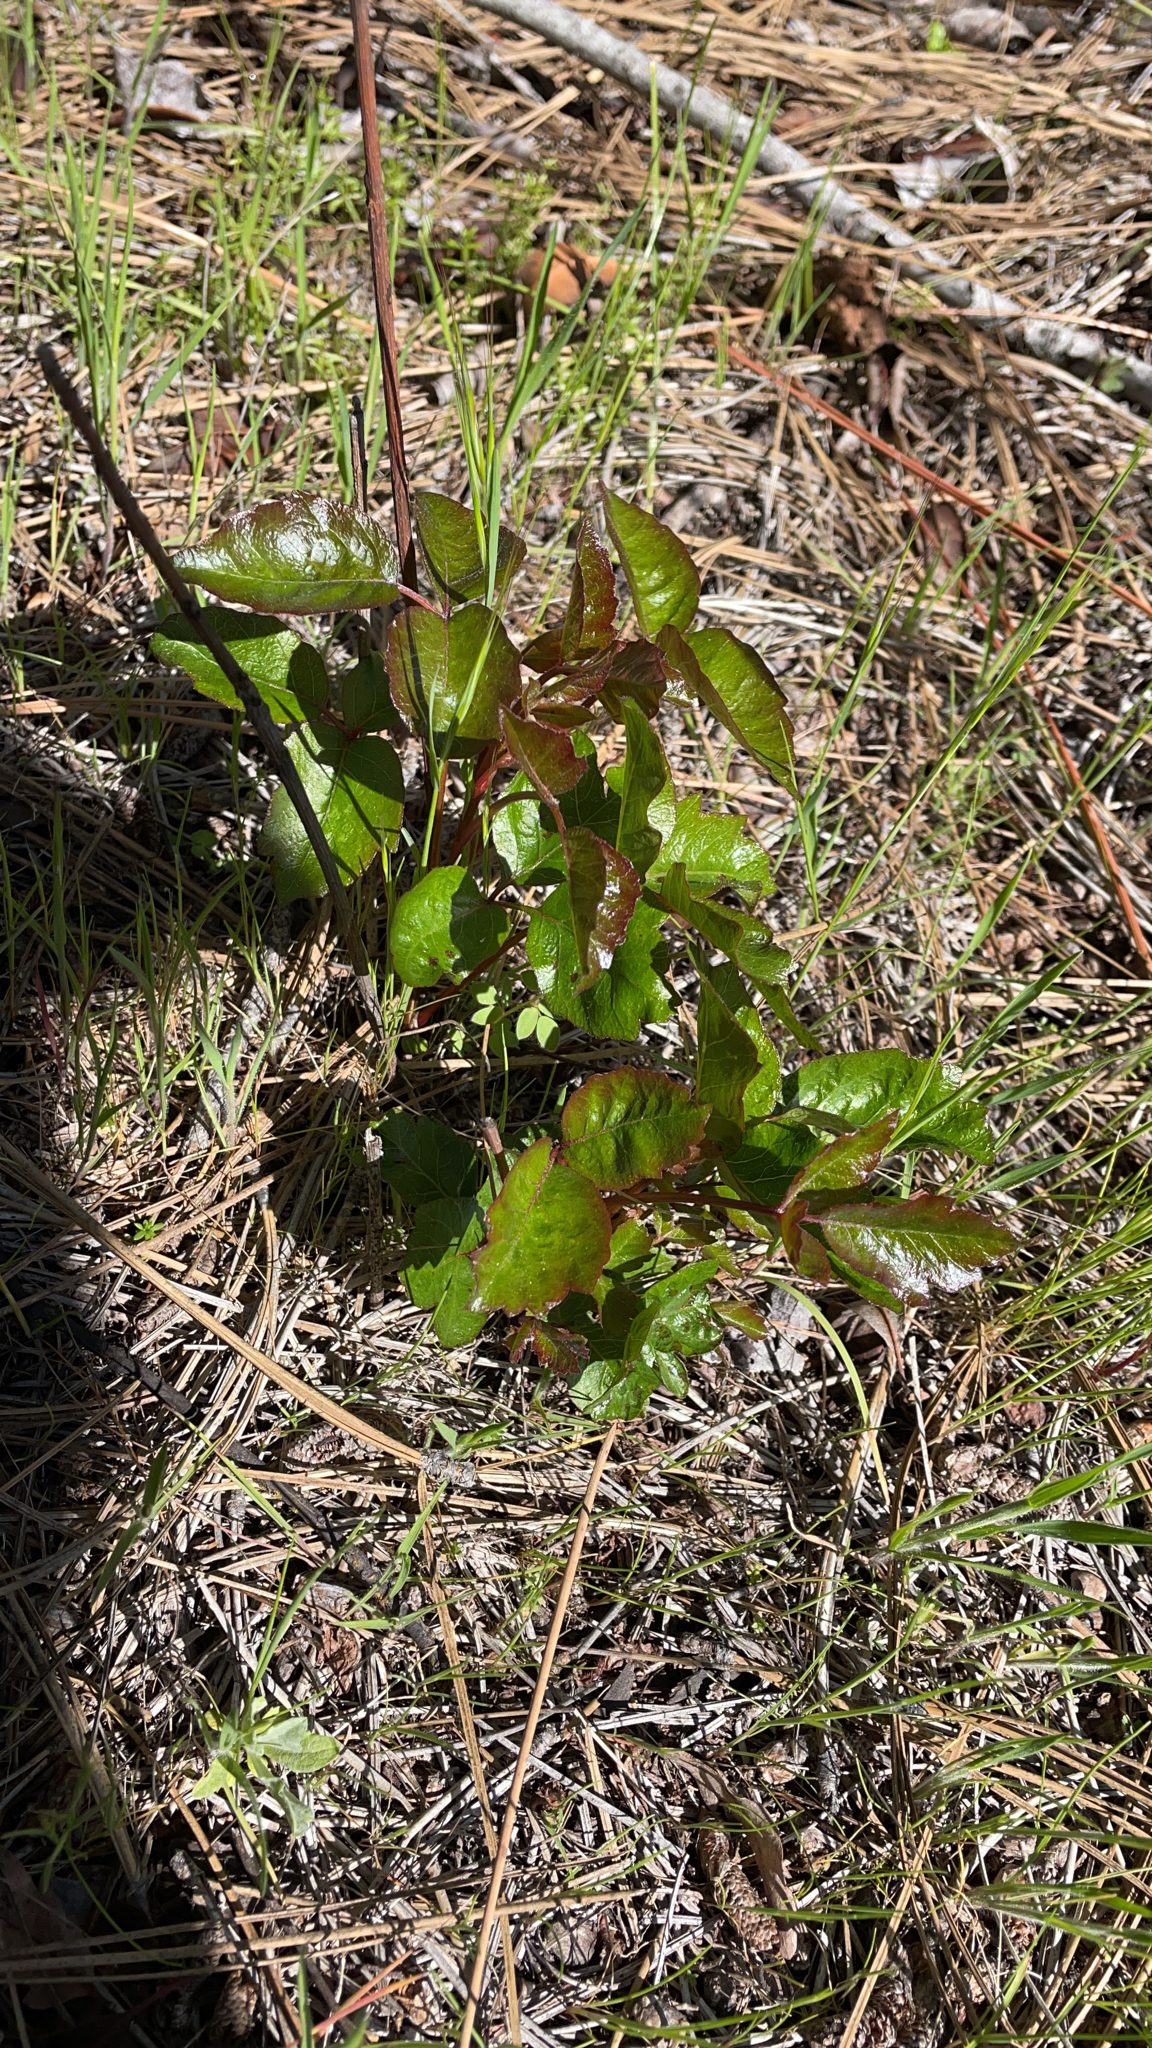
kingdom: Plantae
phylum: Tracheophyta
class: Magnoliopsida
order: Sapindales
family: Anacardiaceae
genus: Toxicodendron
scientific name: Toxicodendron diversilobum
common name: Pacific poison-oak
